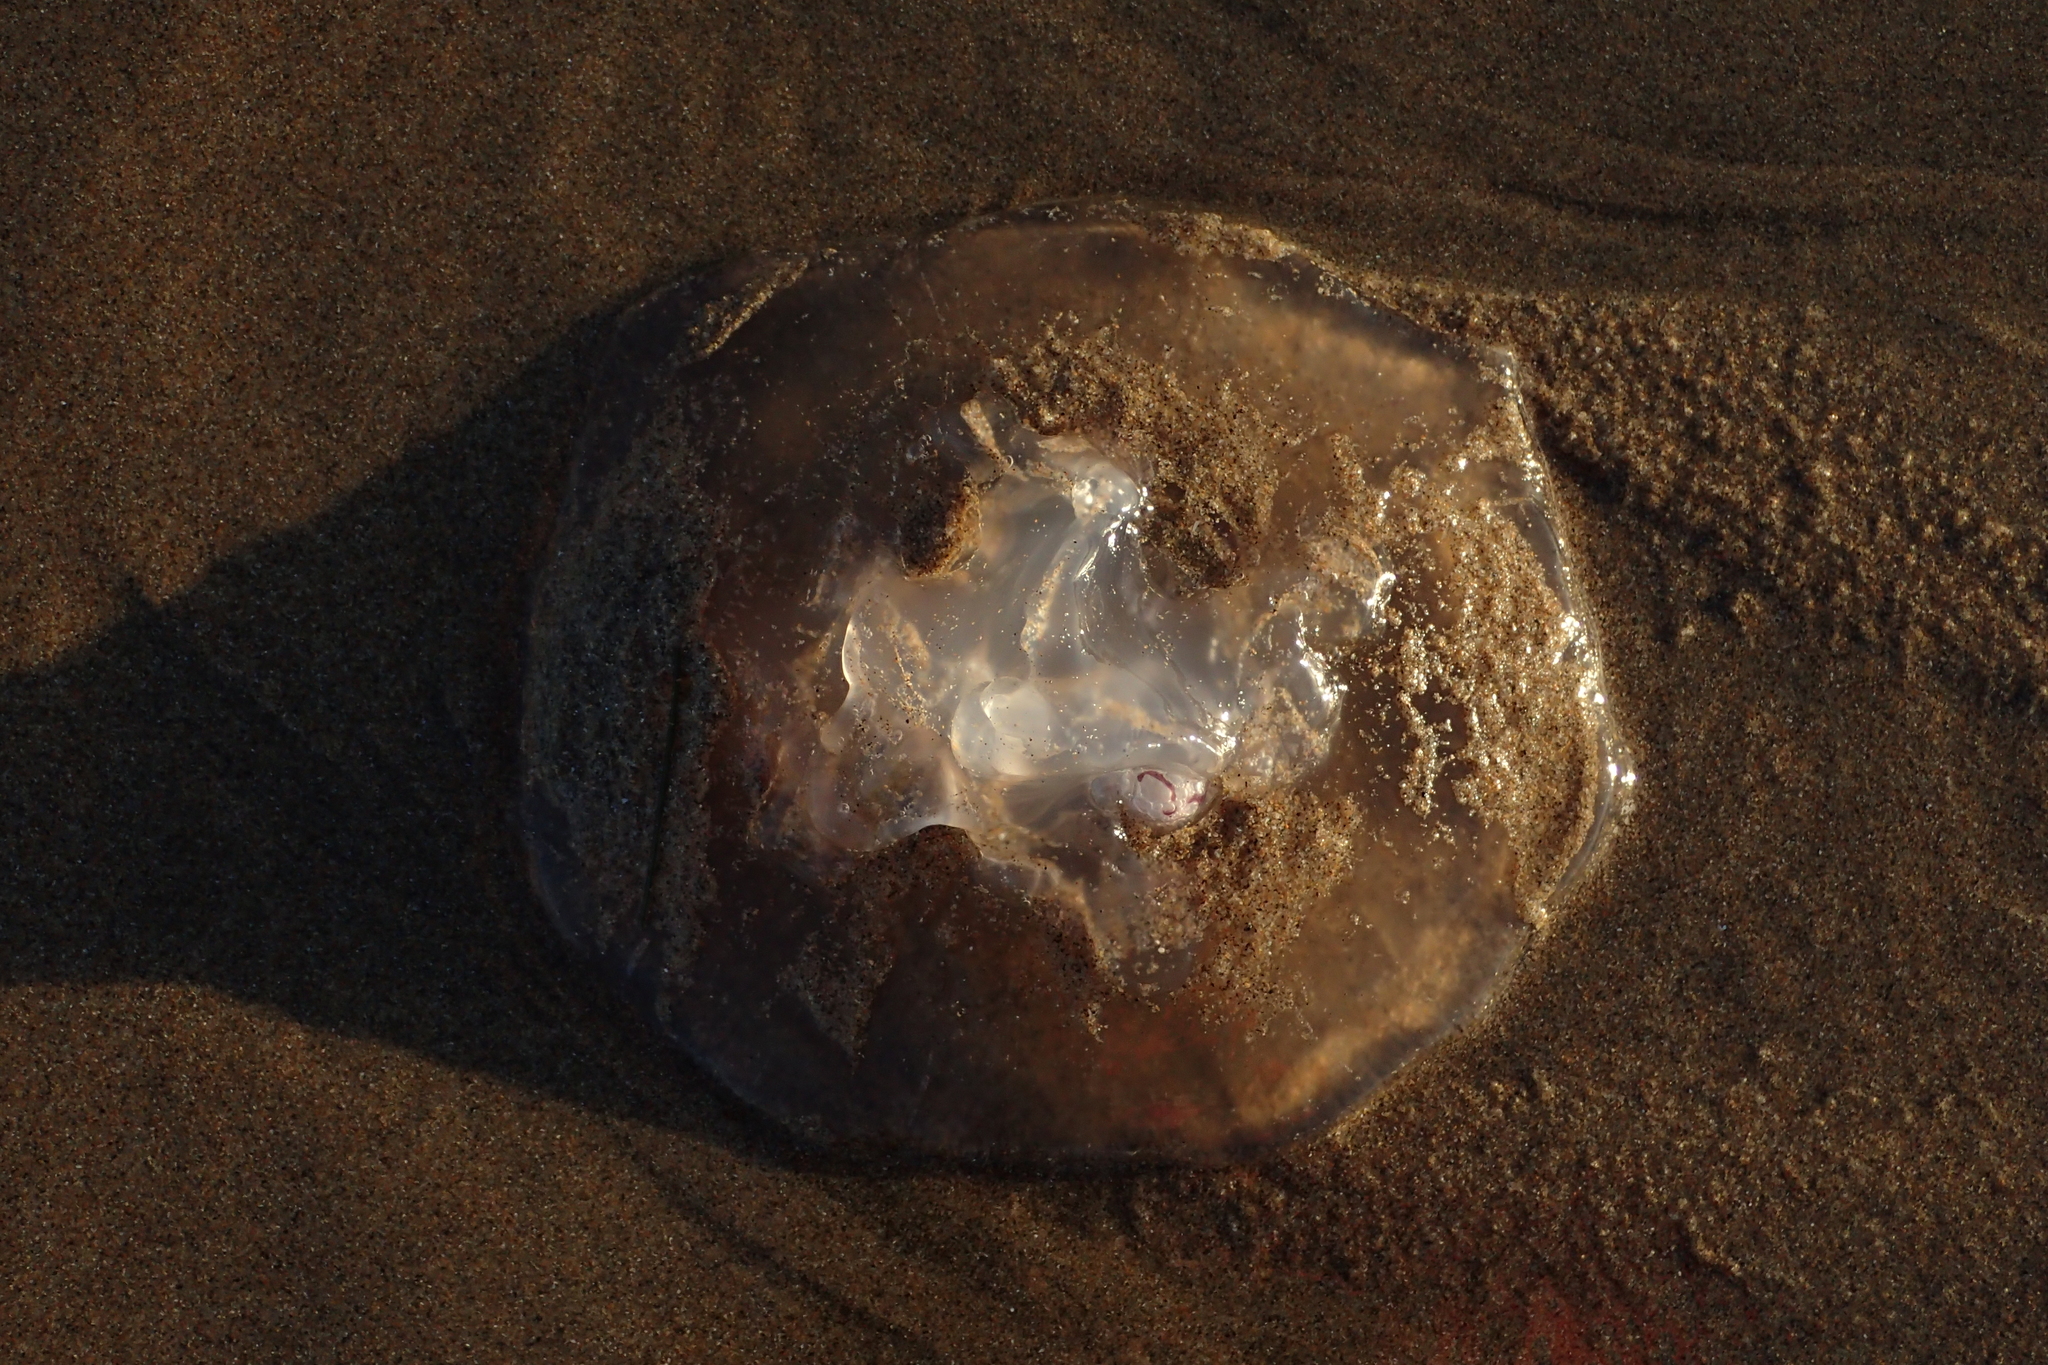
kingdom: Animalia
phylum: Cnidaria
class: Scyphozoa
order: Semaeostomeae
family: Ulmaridae
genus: Aurelia
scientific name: Aurelia labiata
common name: Pacific moon jelly
